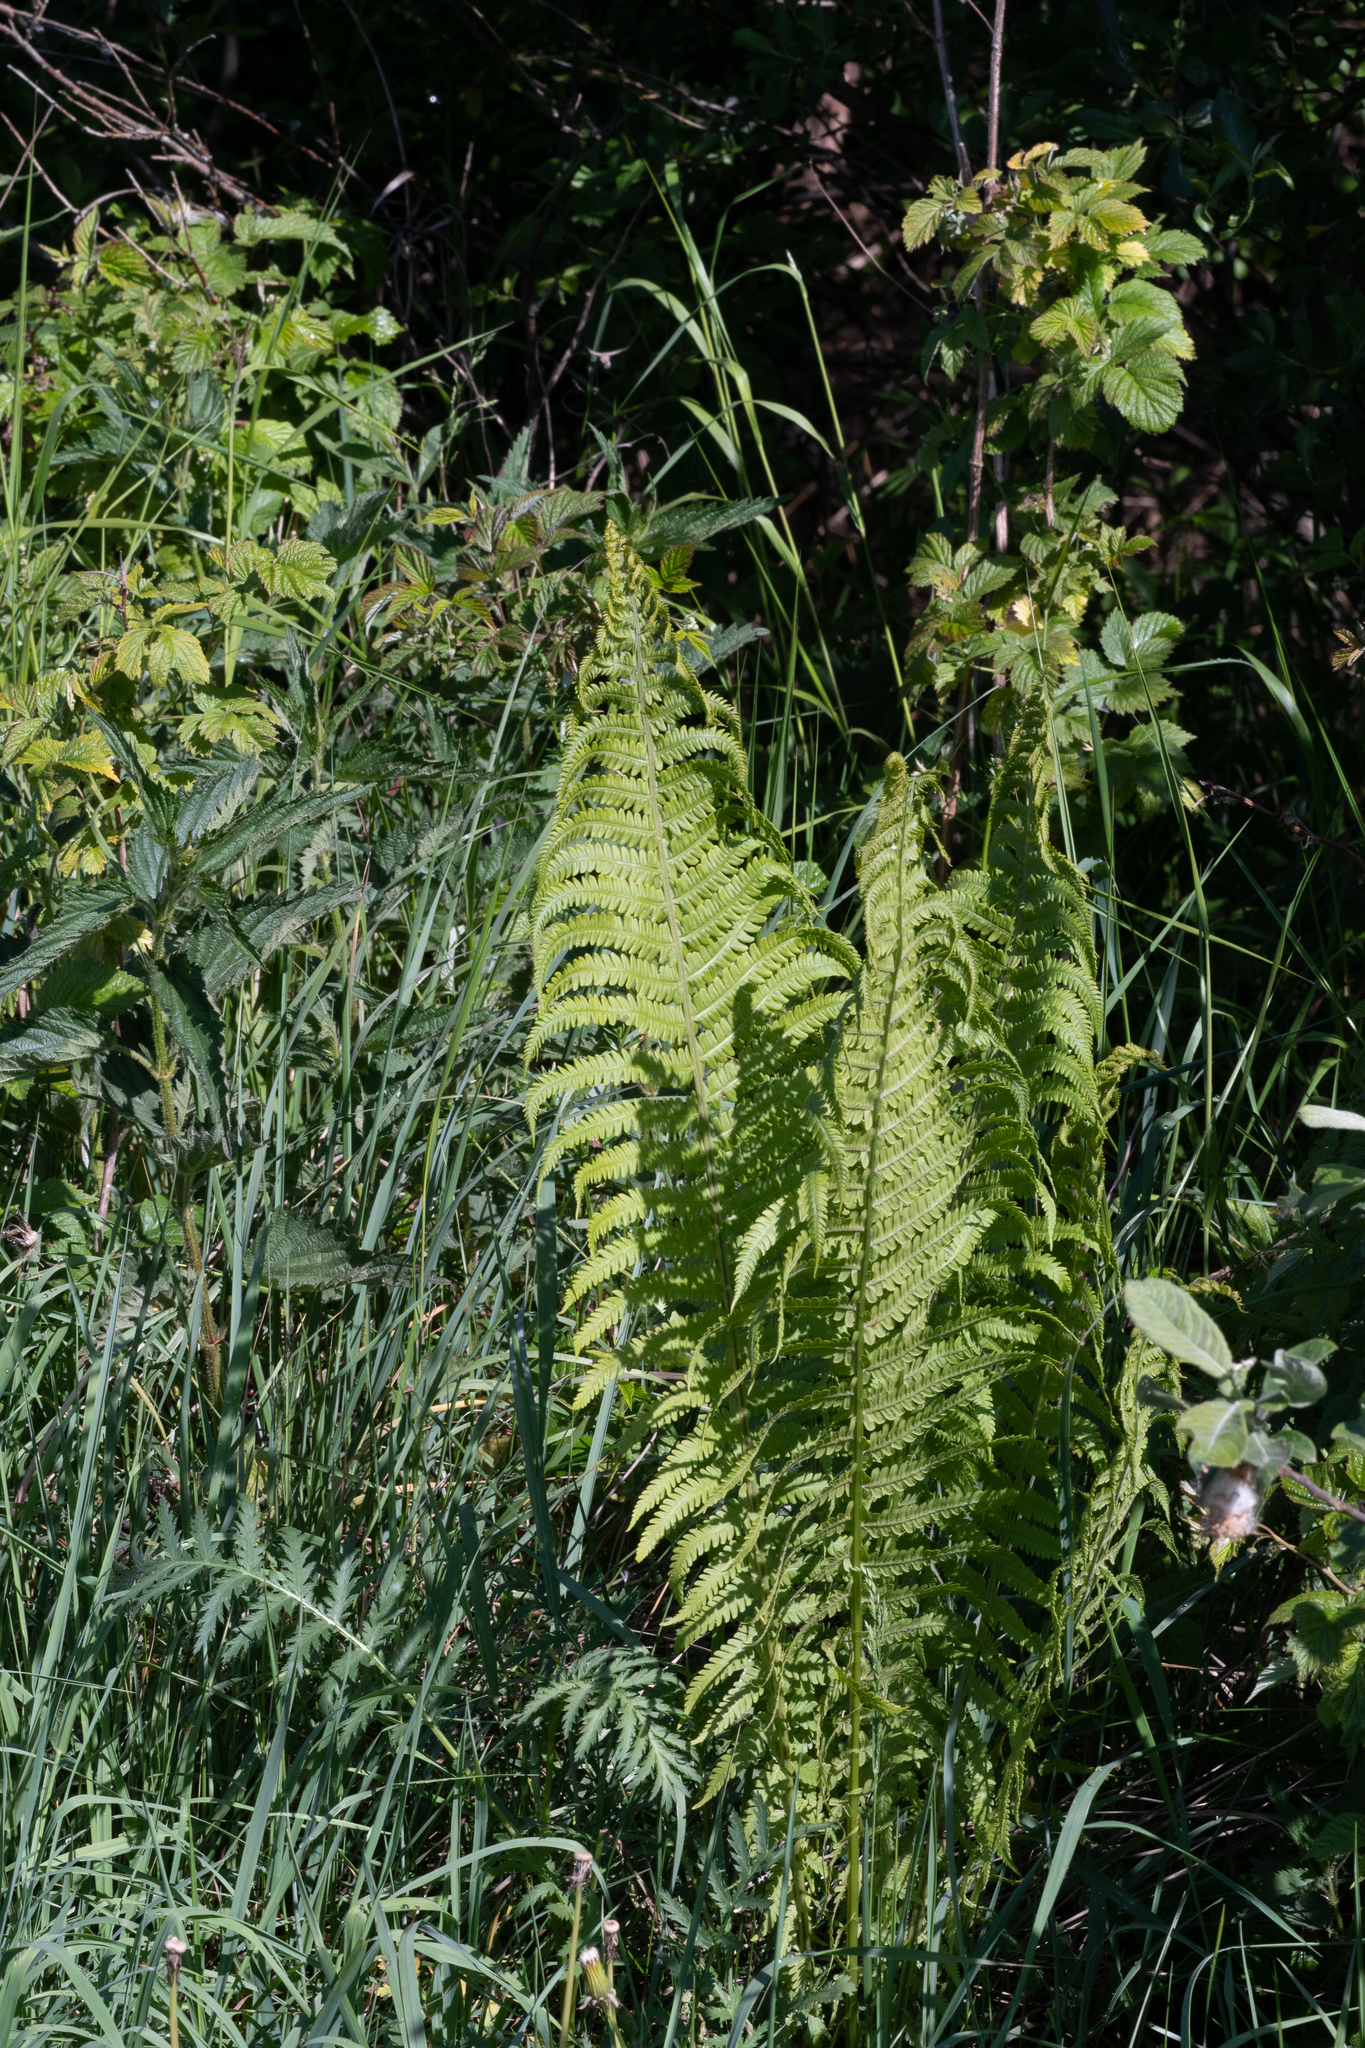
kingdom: Plantae
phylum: Tracheophyta
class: Polypodiopsida
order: Polypodiales
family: Onocleaceae
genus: Matteuccia
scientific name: Matteuccia struthiopteris
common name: Ostrich fern
